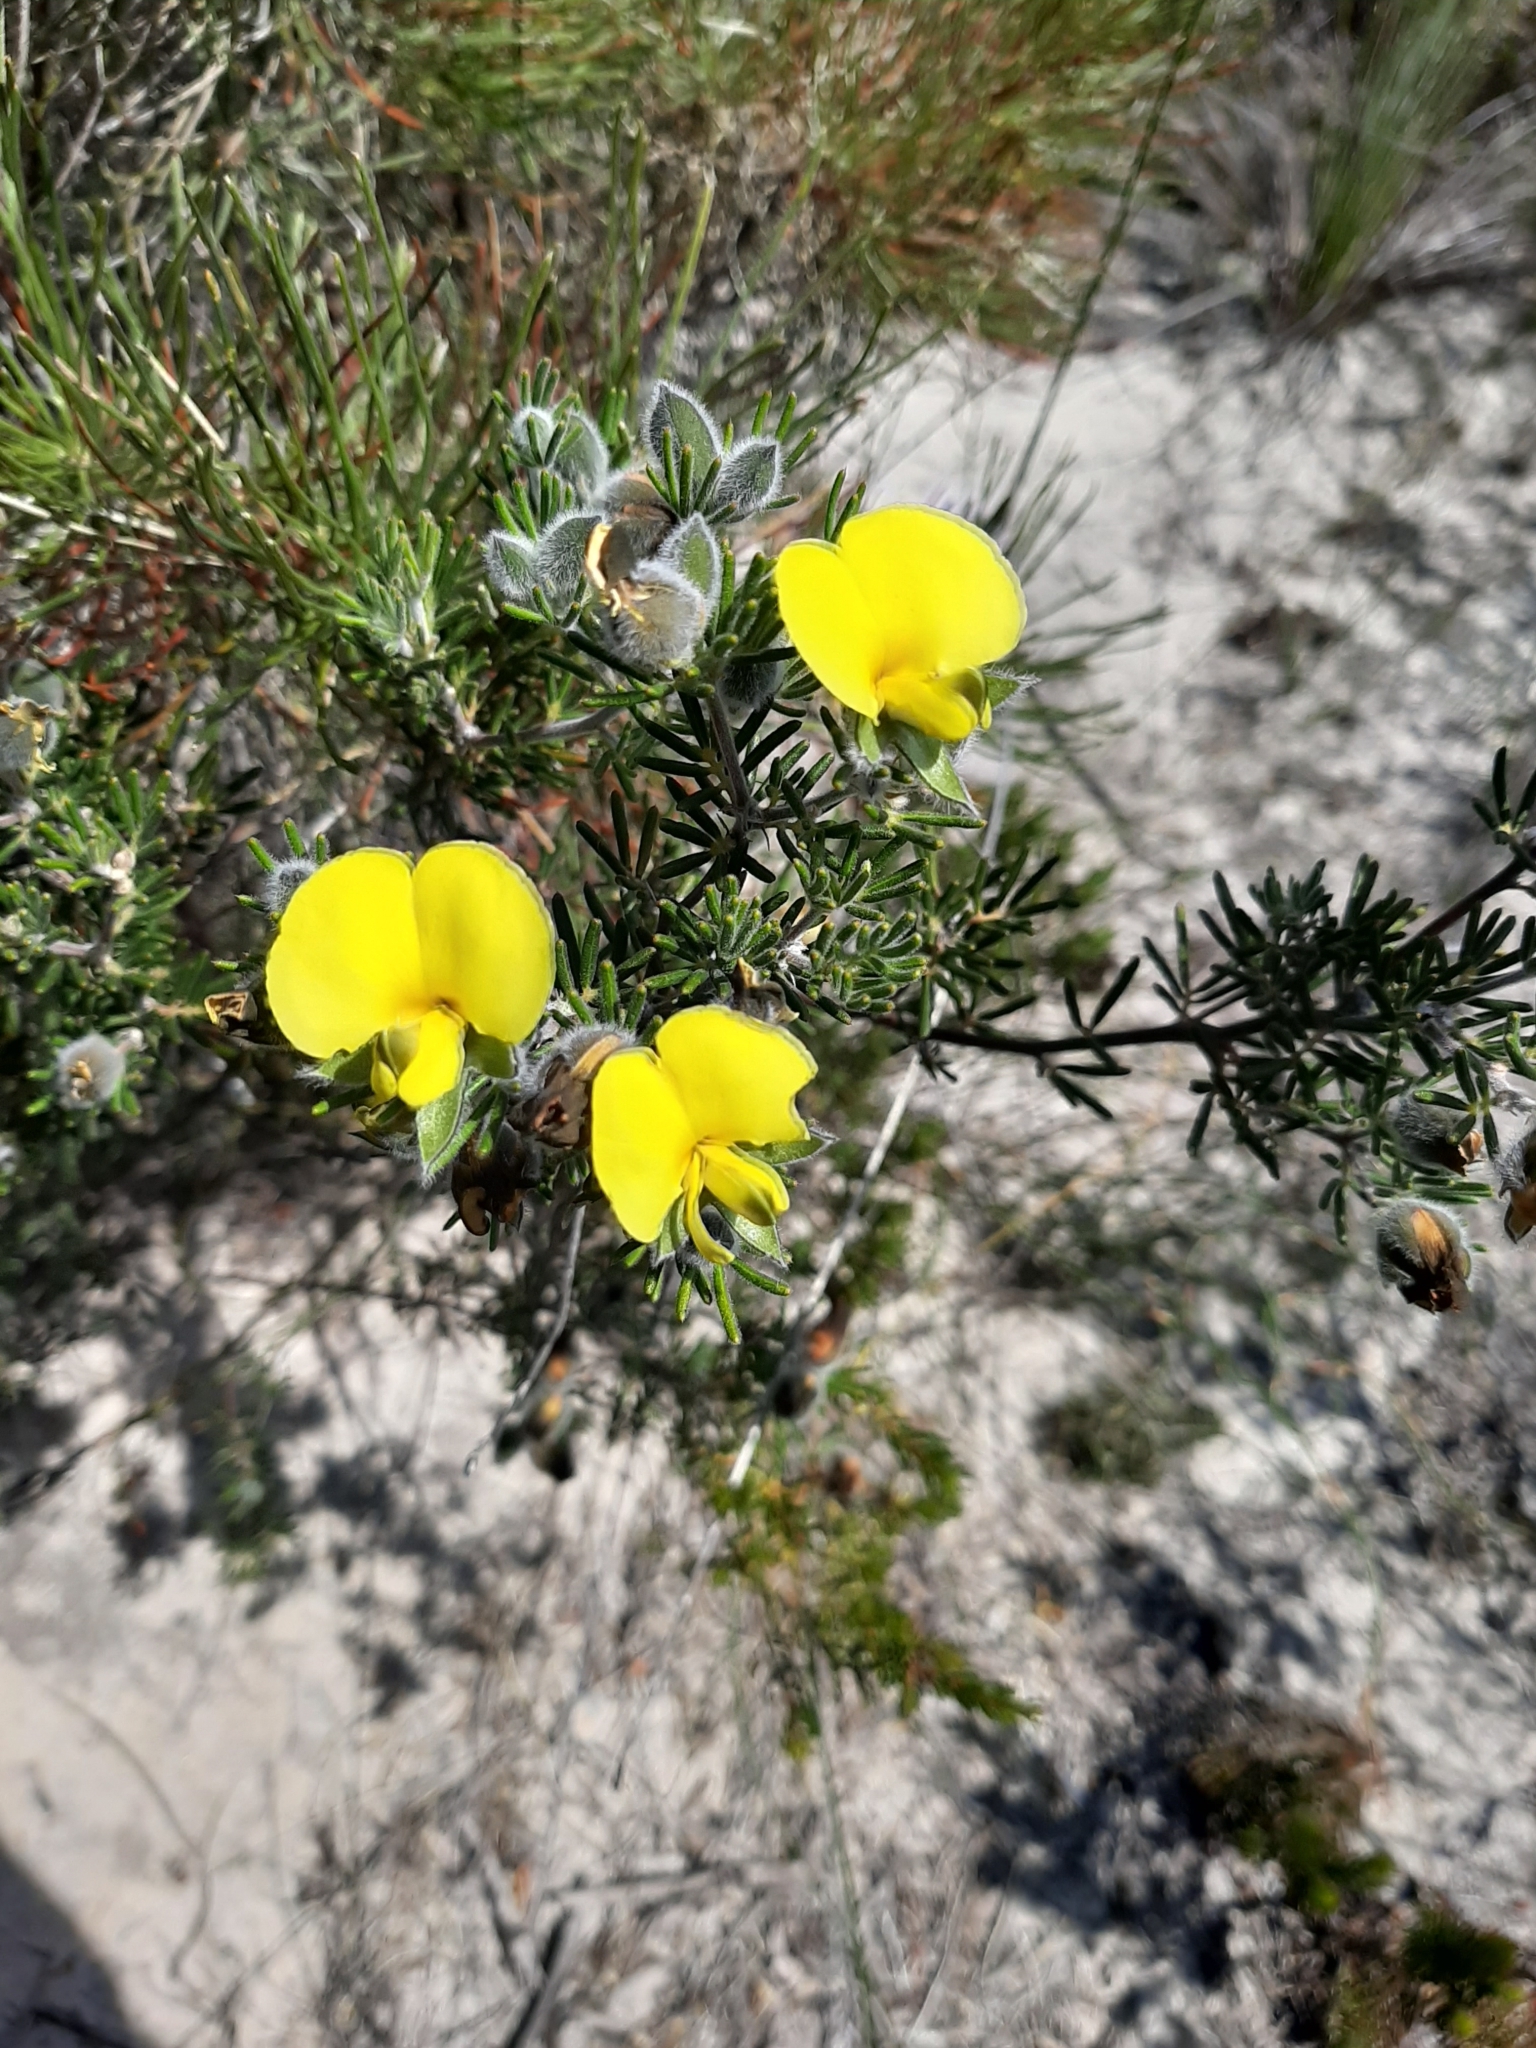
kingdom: Plantae
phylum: Tracheophyta
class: Magnoliopsida
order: Fabales
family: Fabaceae
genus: Gompholobium
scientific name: Gompholobium tomentosum
